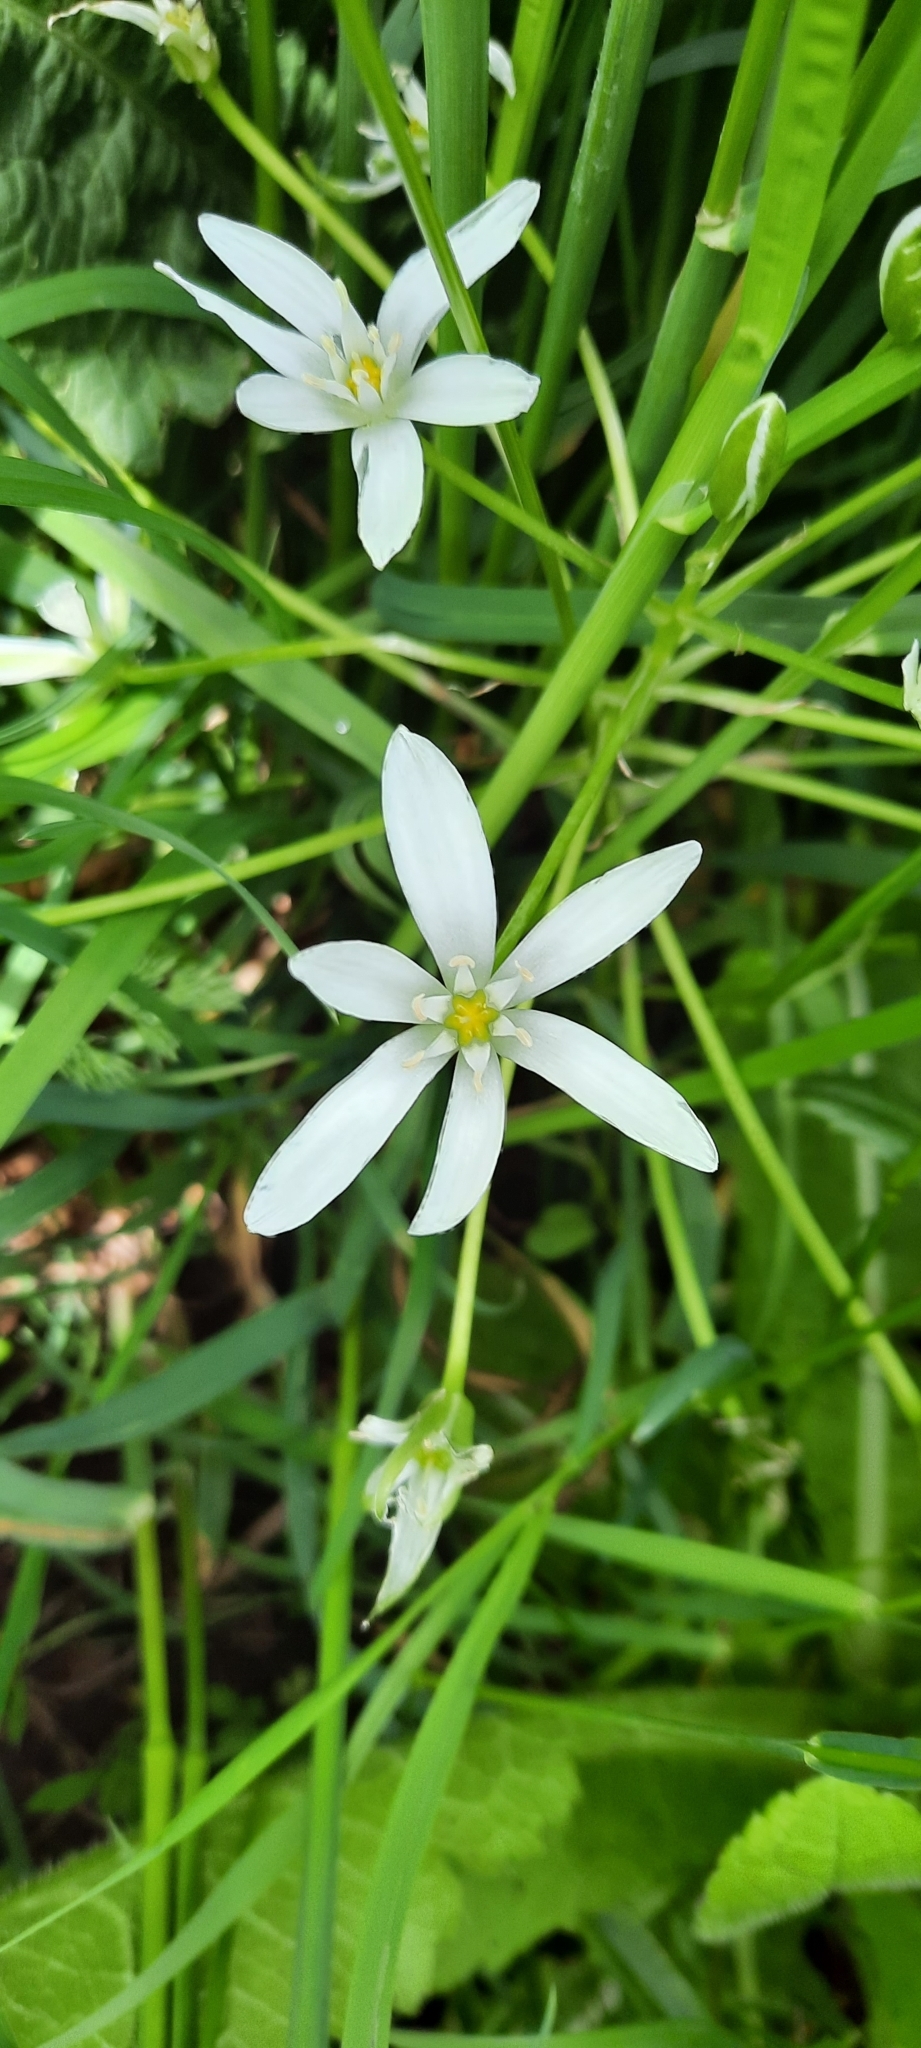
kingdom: Plantae
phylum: Tracheophyta
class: Liliopsida
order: Asparagales
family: Asparagaceae
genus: Ornithogalum
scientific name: Ornithogalum umbellatum
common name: Garden star-of-bethlehem
